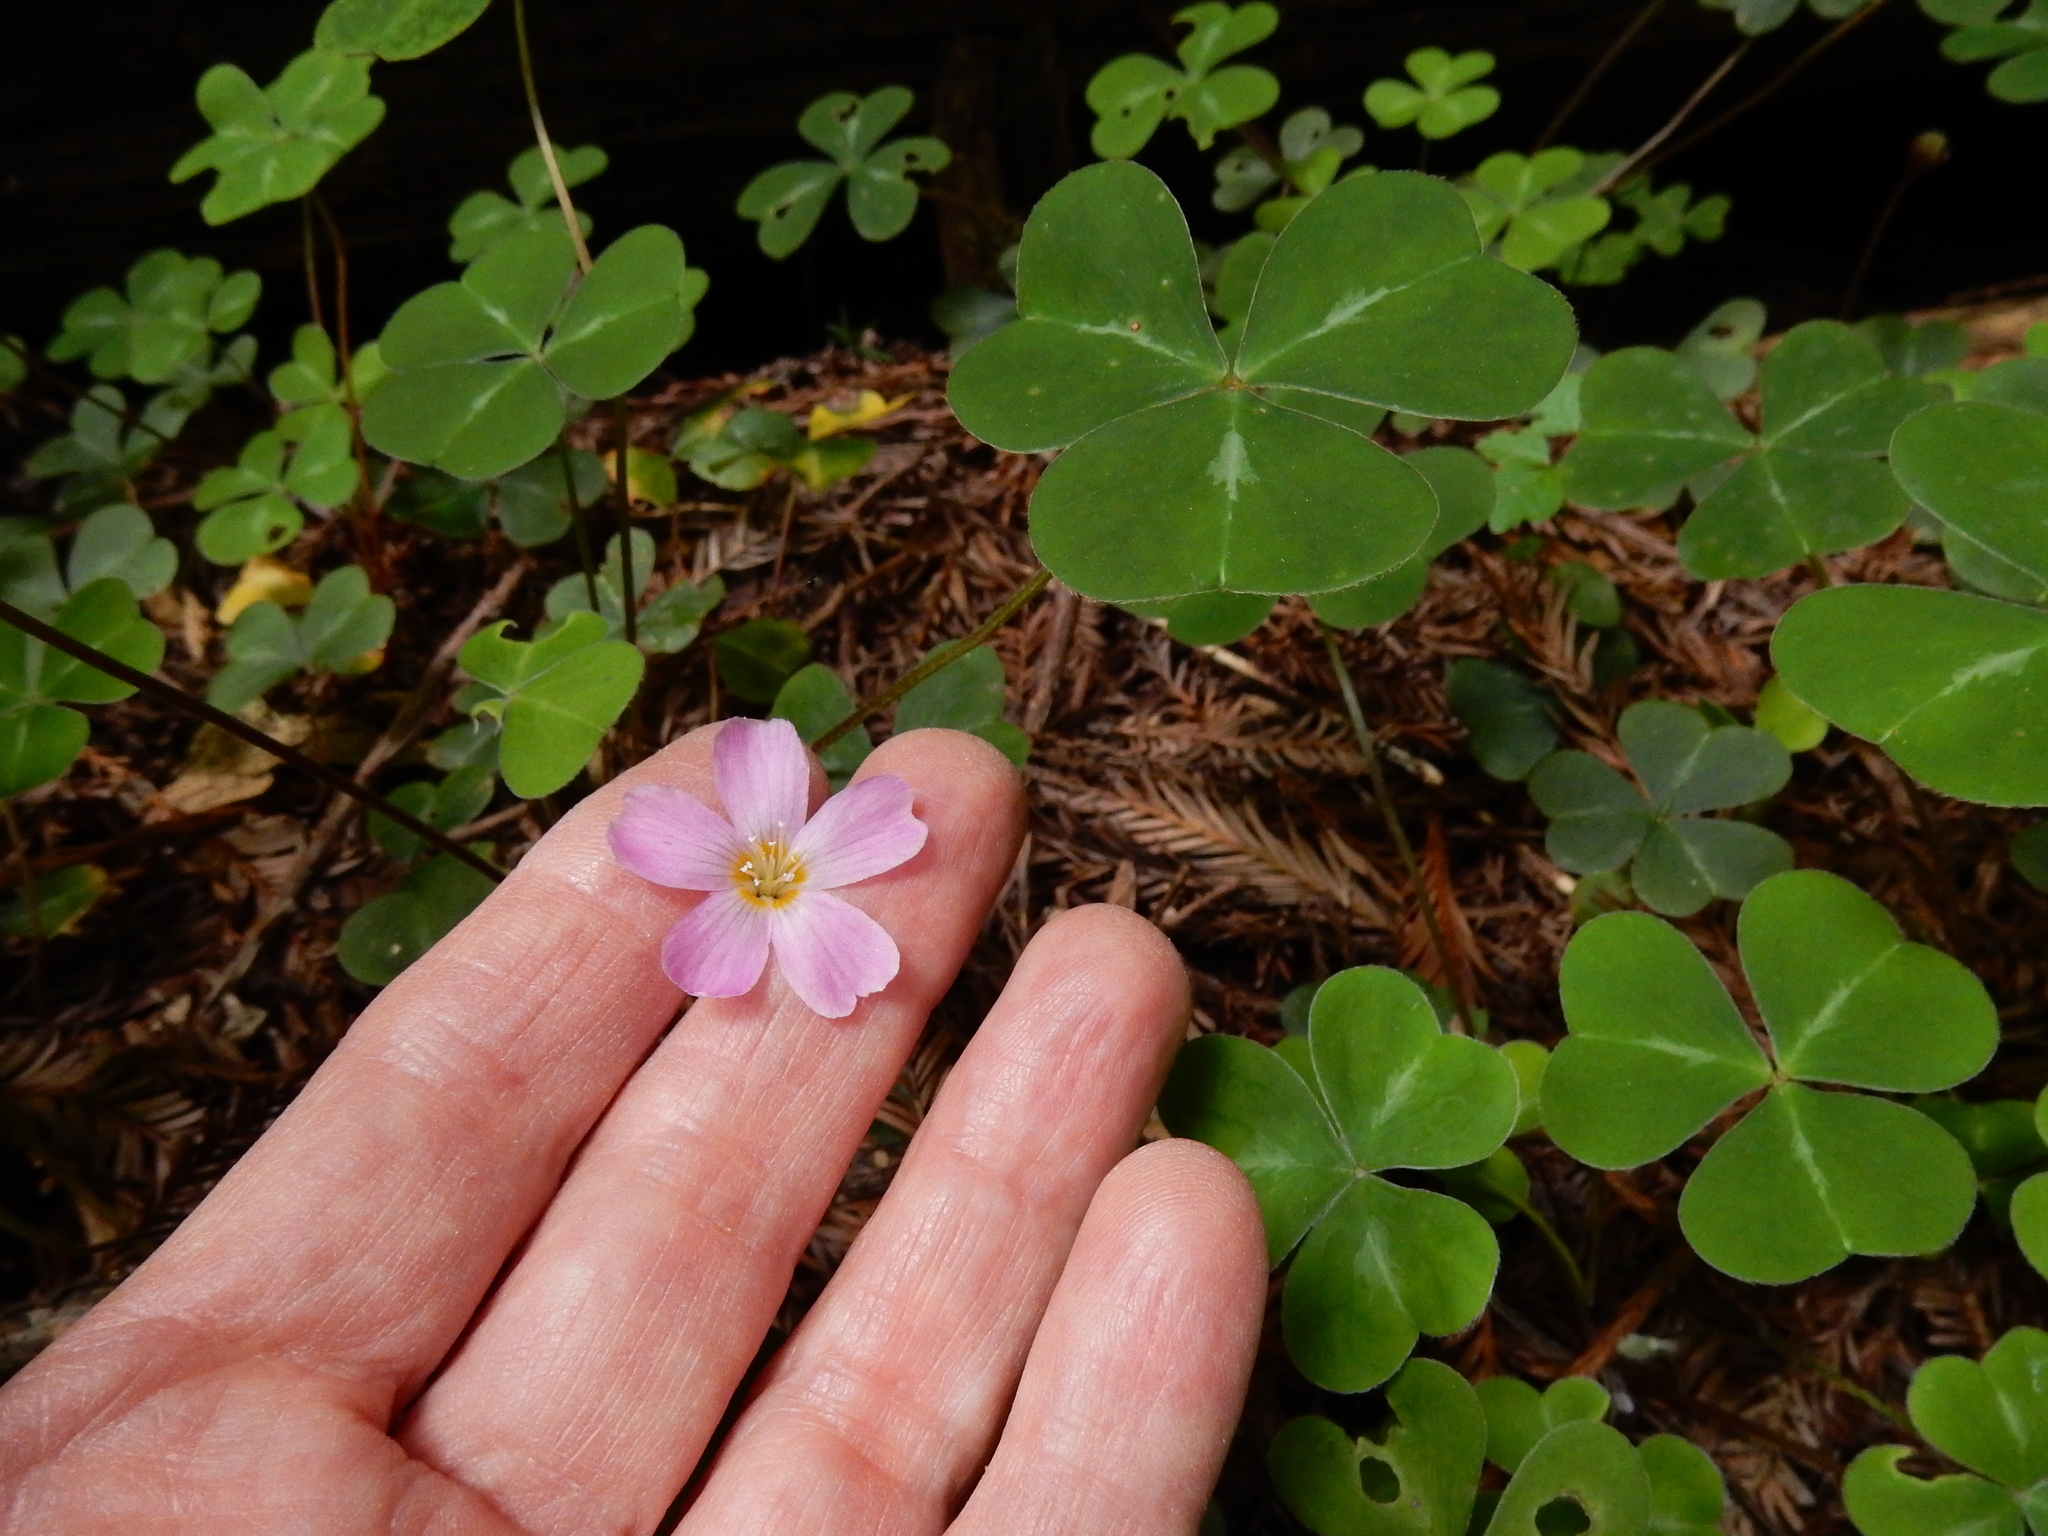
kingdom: Plantae
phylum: Tracheophyta
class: Magnoliopsida
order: Oxalidales
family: Oxalidaceae
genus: Oxalis
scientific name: Oxalis oregana
